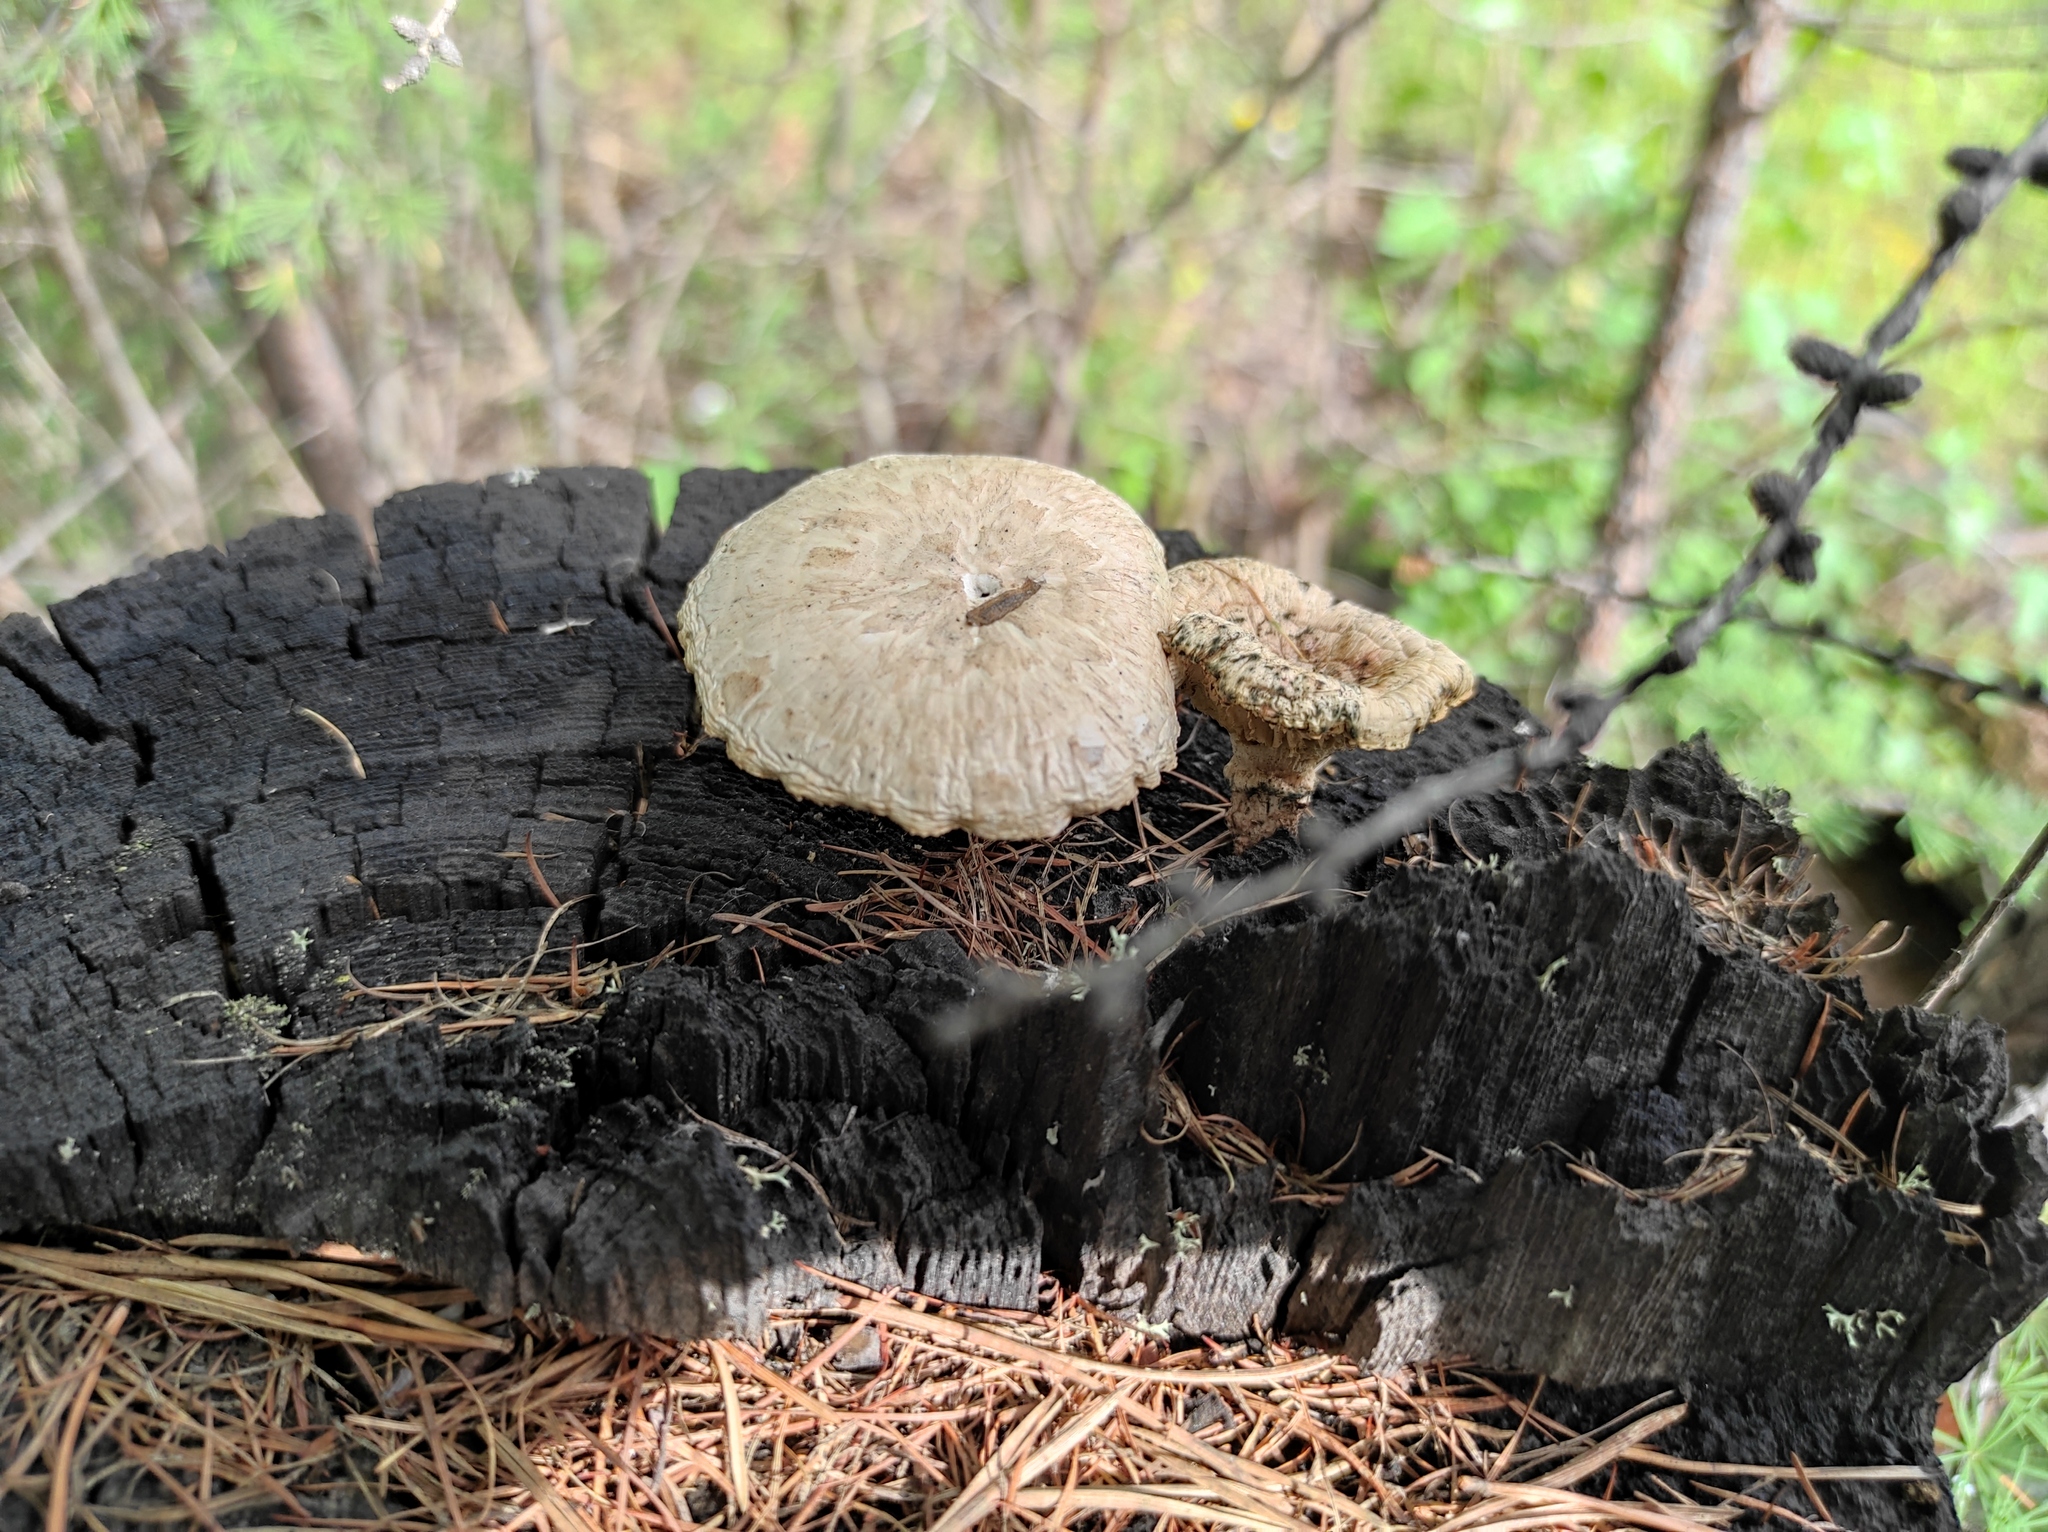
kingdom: Fungi
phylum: Basidiomycota
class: Agaricomycetes
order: Gloeophyllales
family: Gloeophyllaceae
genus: Neolentinus
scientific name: Neolentinus lepideus
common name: Scaly sawgill
